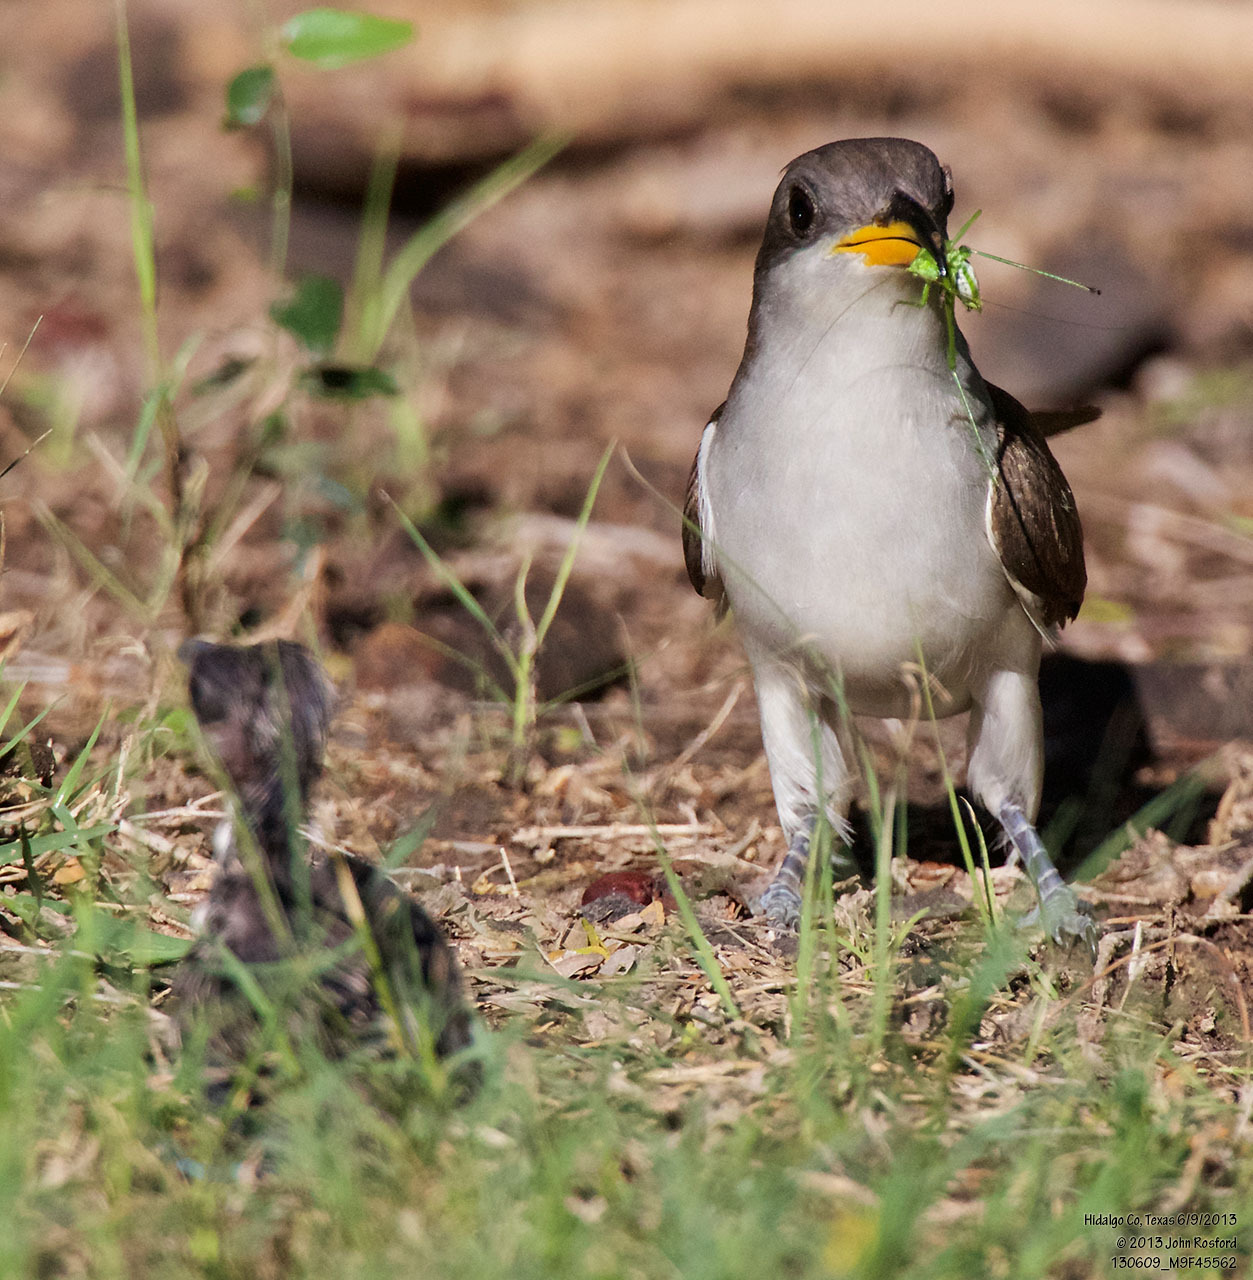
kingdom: Animalia
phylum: Chordata
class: Aves
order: Cuculiformes
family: Cuculidae
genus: Coccyzus
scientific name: Coccyzus americanus
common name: Yellow-billed cuckoo
